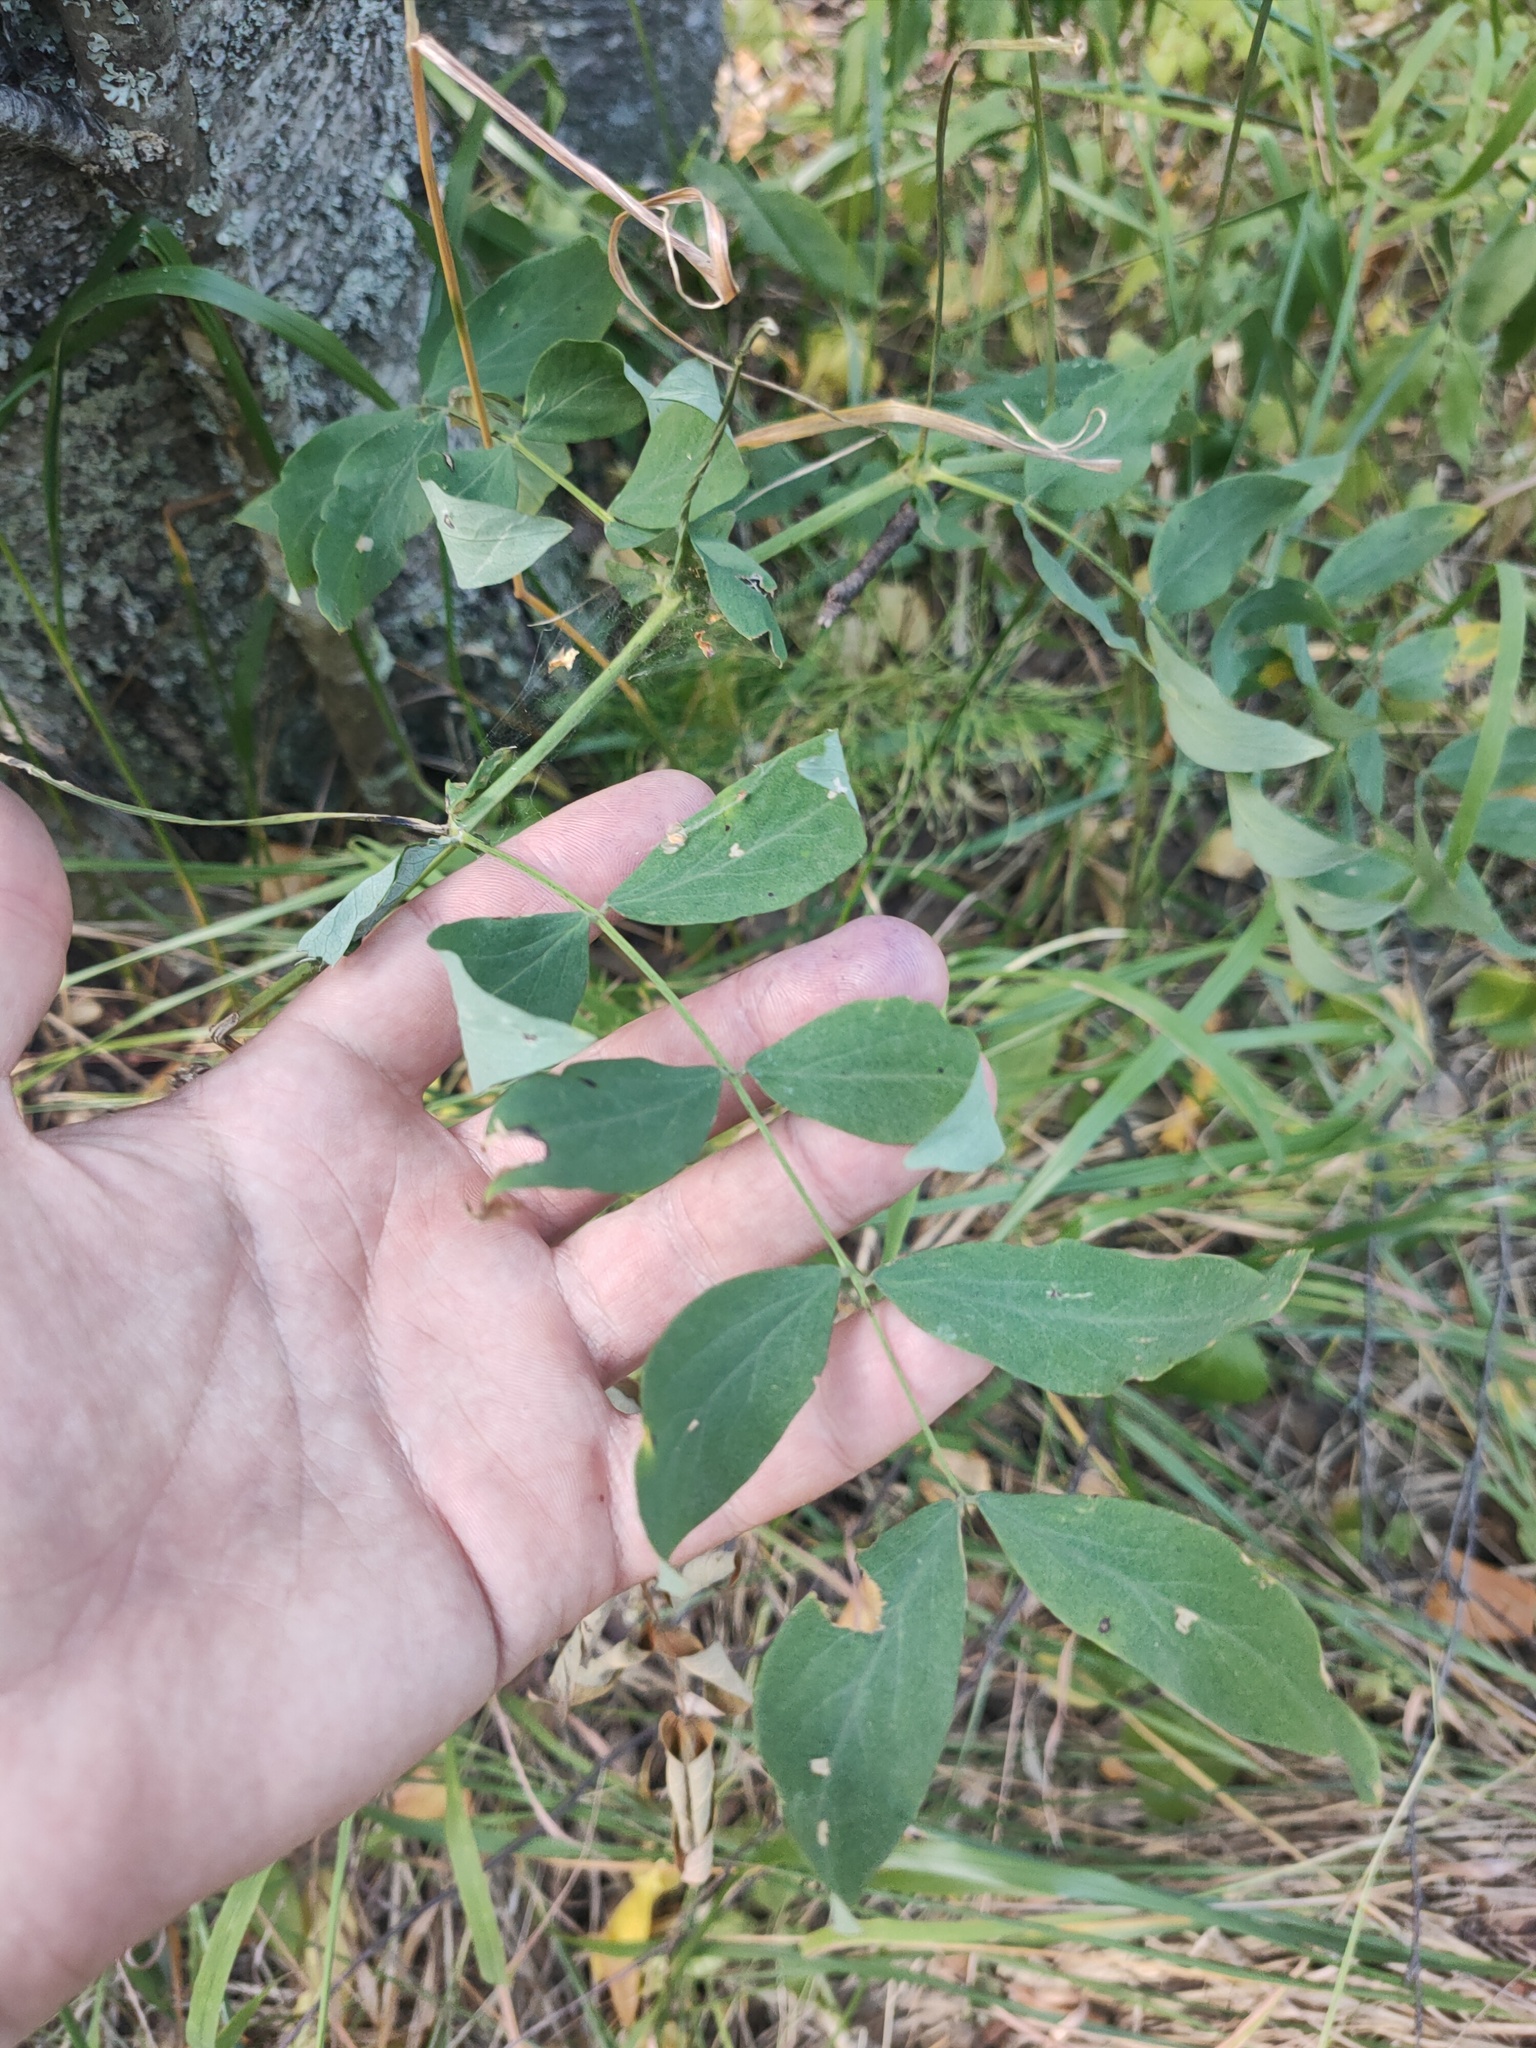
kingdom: Plantae
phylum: Tracheophyta
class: Magnoliopsida
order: Fabales
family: Fabaceae
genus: Lathyrus
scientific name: Lathyrus gmelinii
